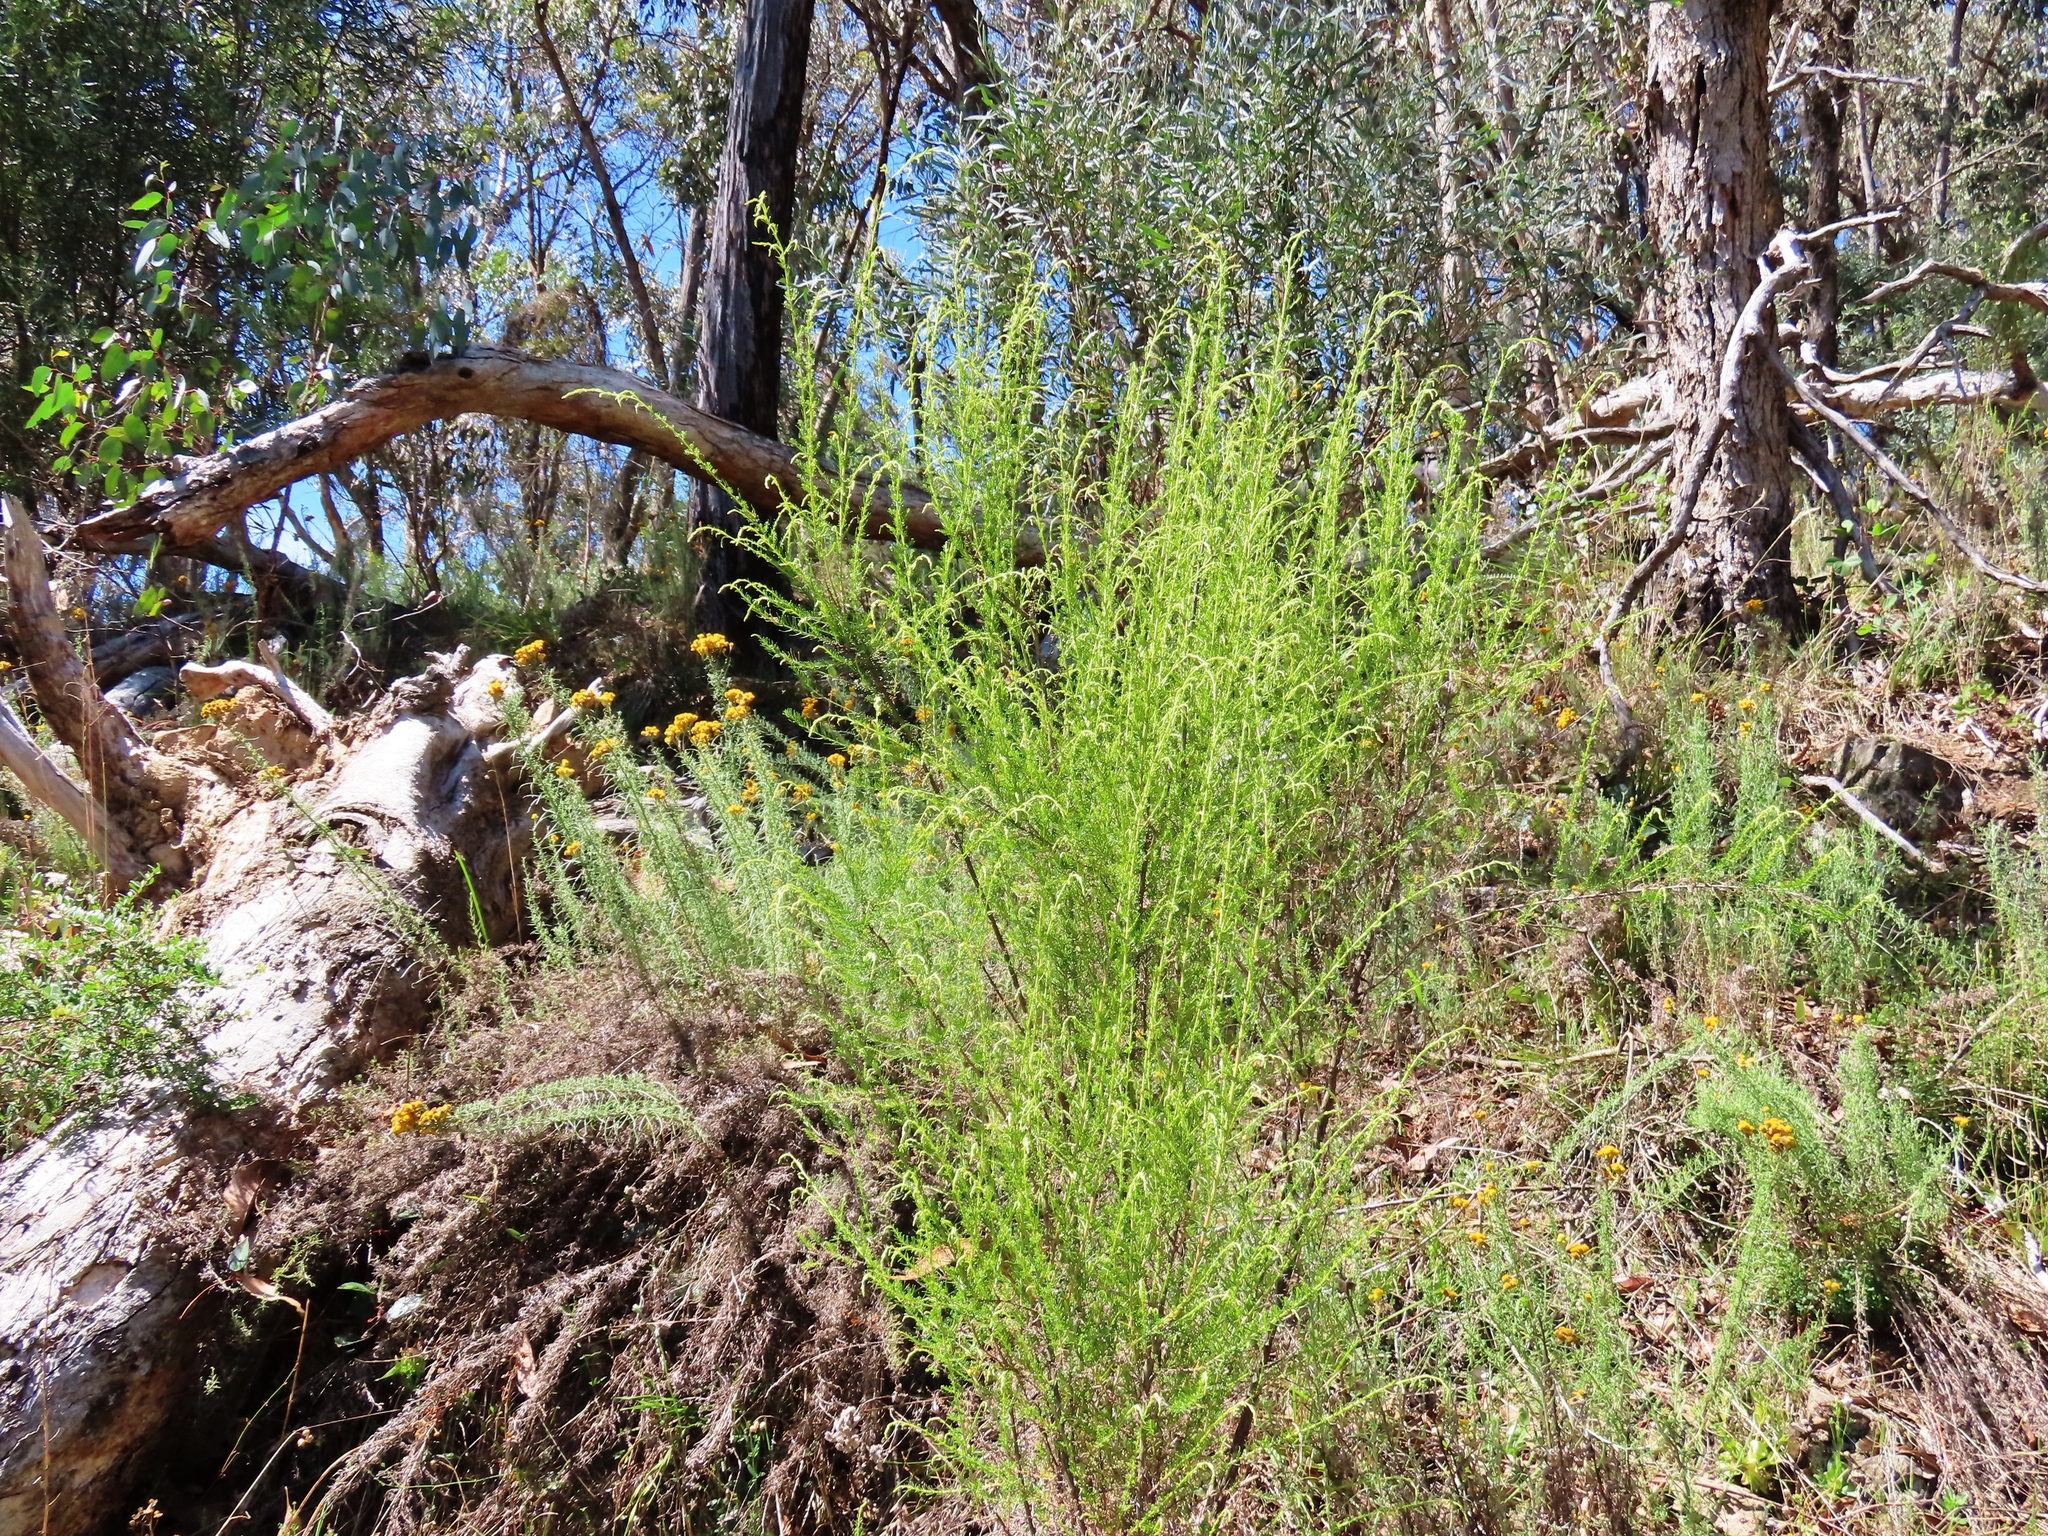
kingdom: Plantae
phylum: Tracheophyta
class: Magnoliopsida
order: Asterales
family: Asteraceae
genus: Cassinia
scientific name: Cassinia sifton
